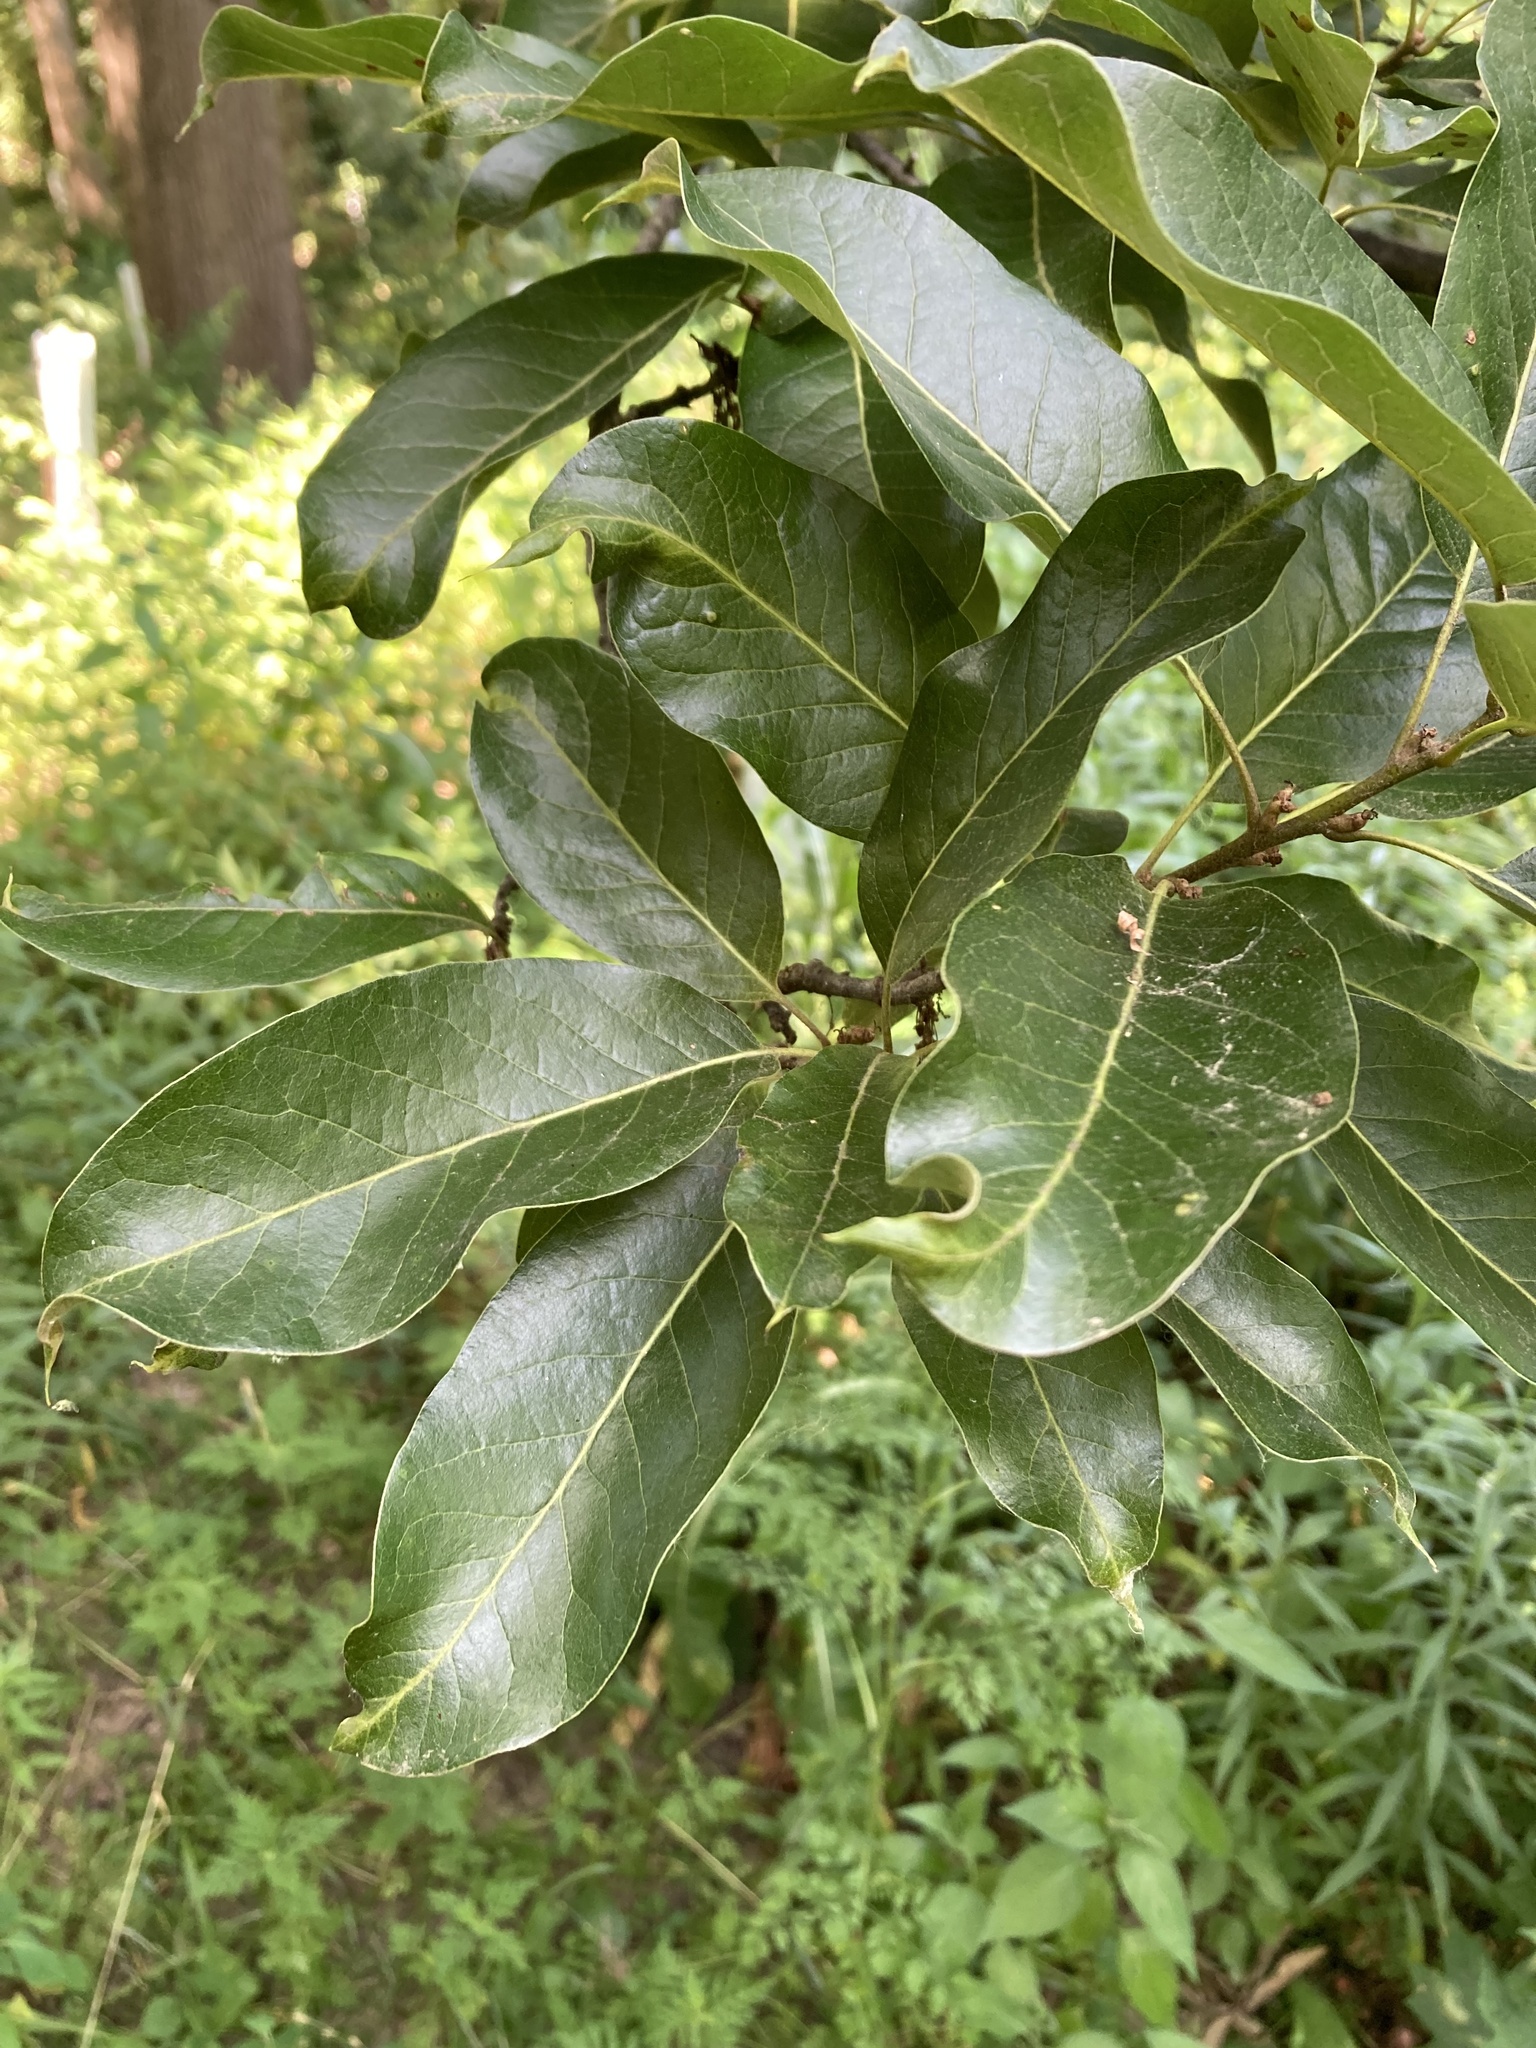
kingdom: Plantae
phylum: Tracheophyta
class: Magnoliopsida
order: Fagales
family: Fagaceae
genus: Quercus
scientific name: Quercus imbricaria
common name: Shingle oak
